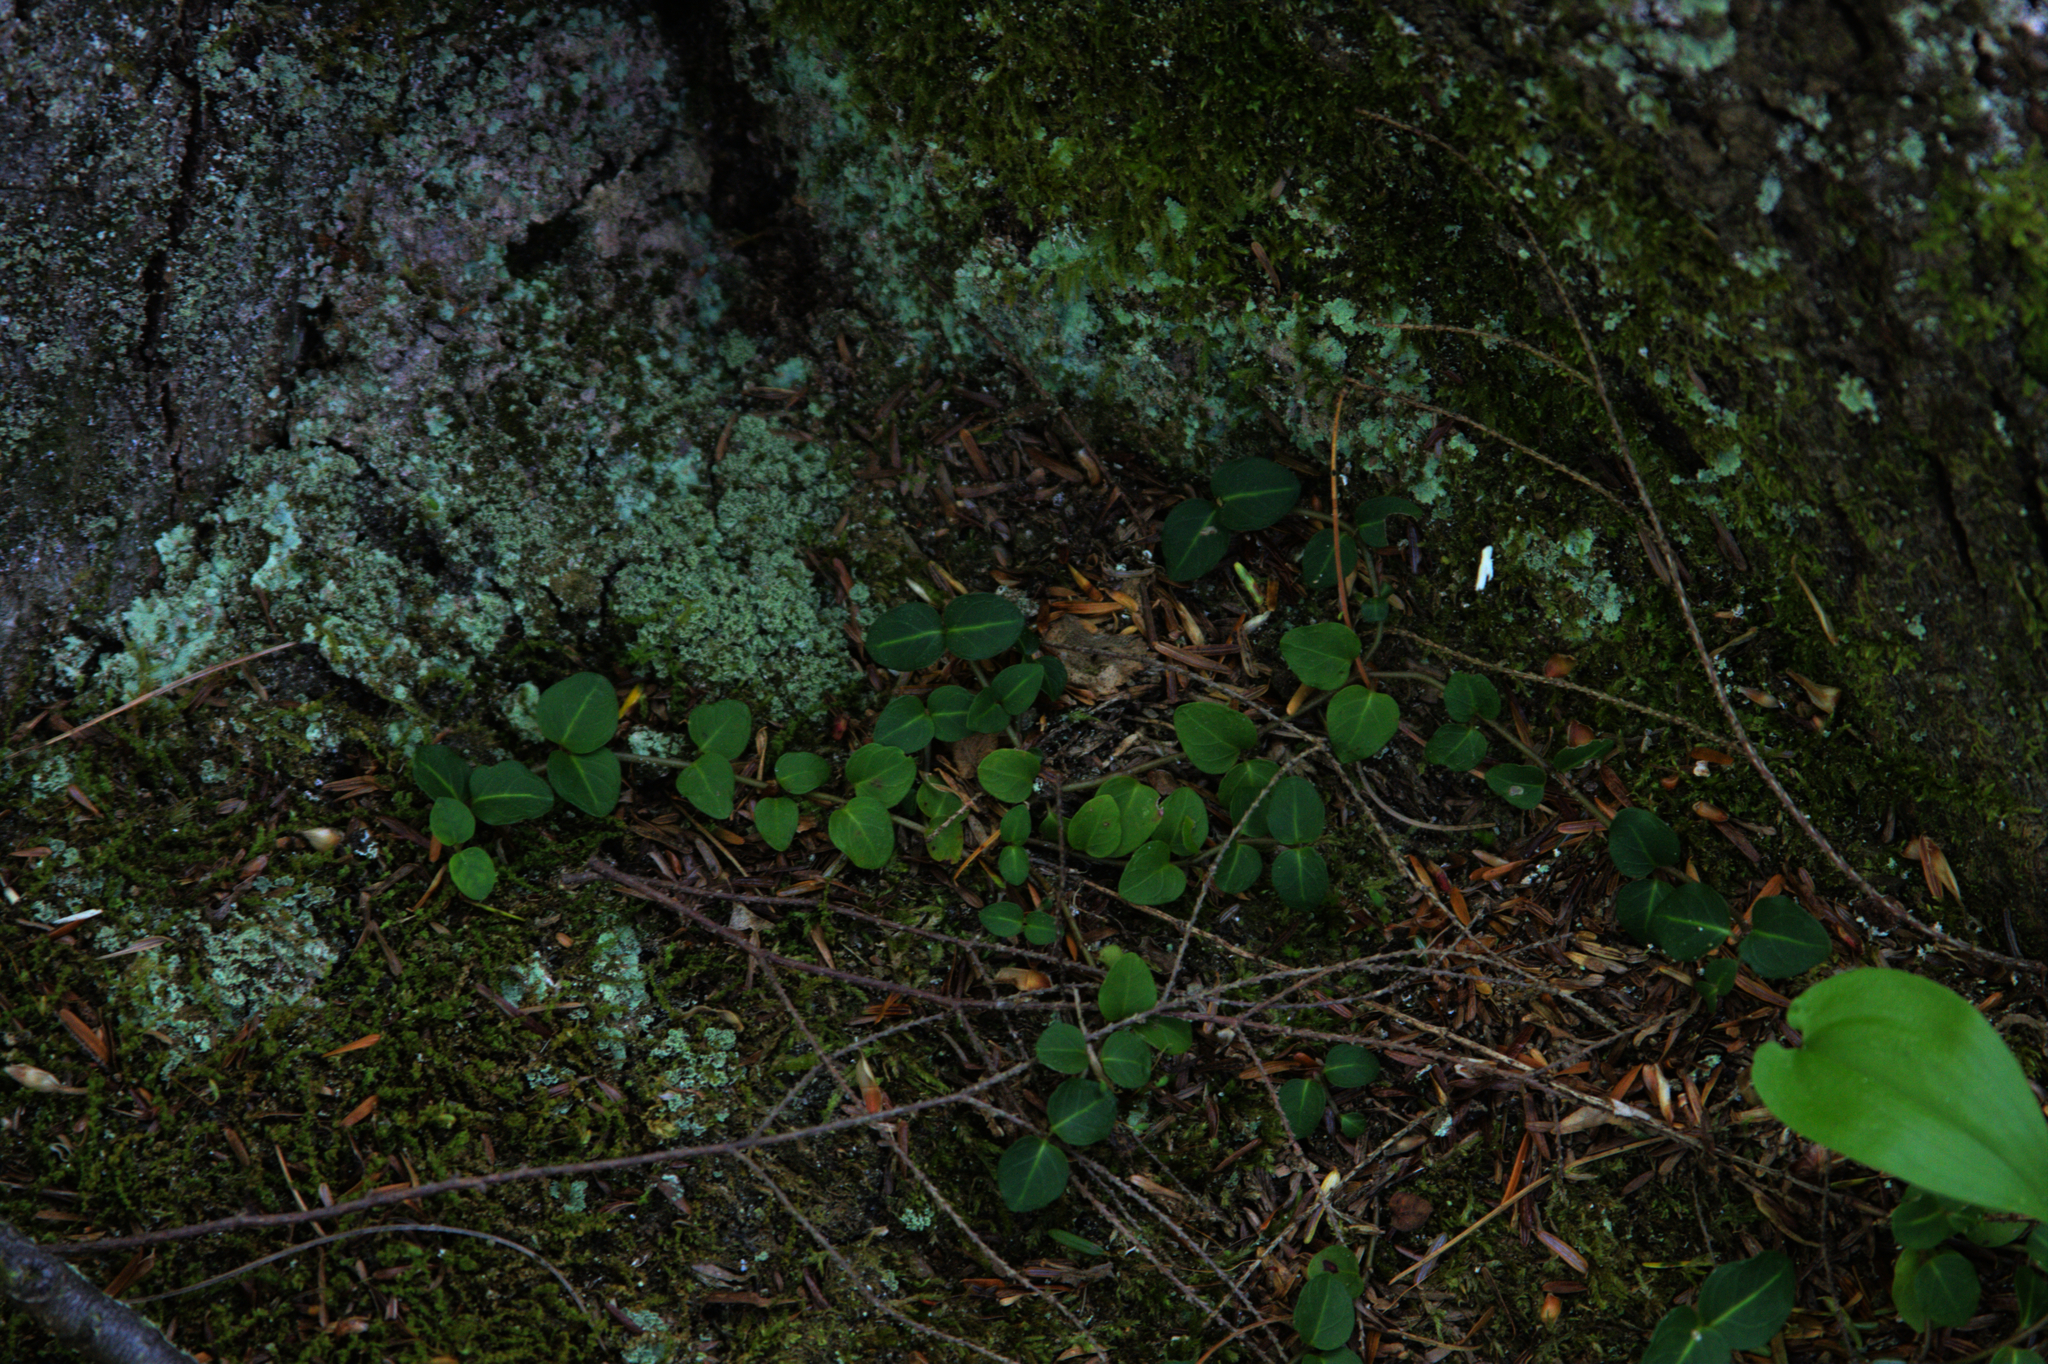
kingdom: Plantae
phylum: Tracheophyta
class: Magnoliopsida
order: Gentianales
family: Rubiaceae
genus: Mitchella
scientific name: Mitchella repens
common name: Partridge-berry
